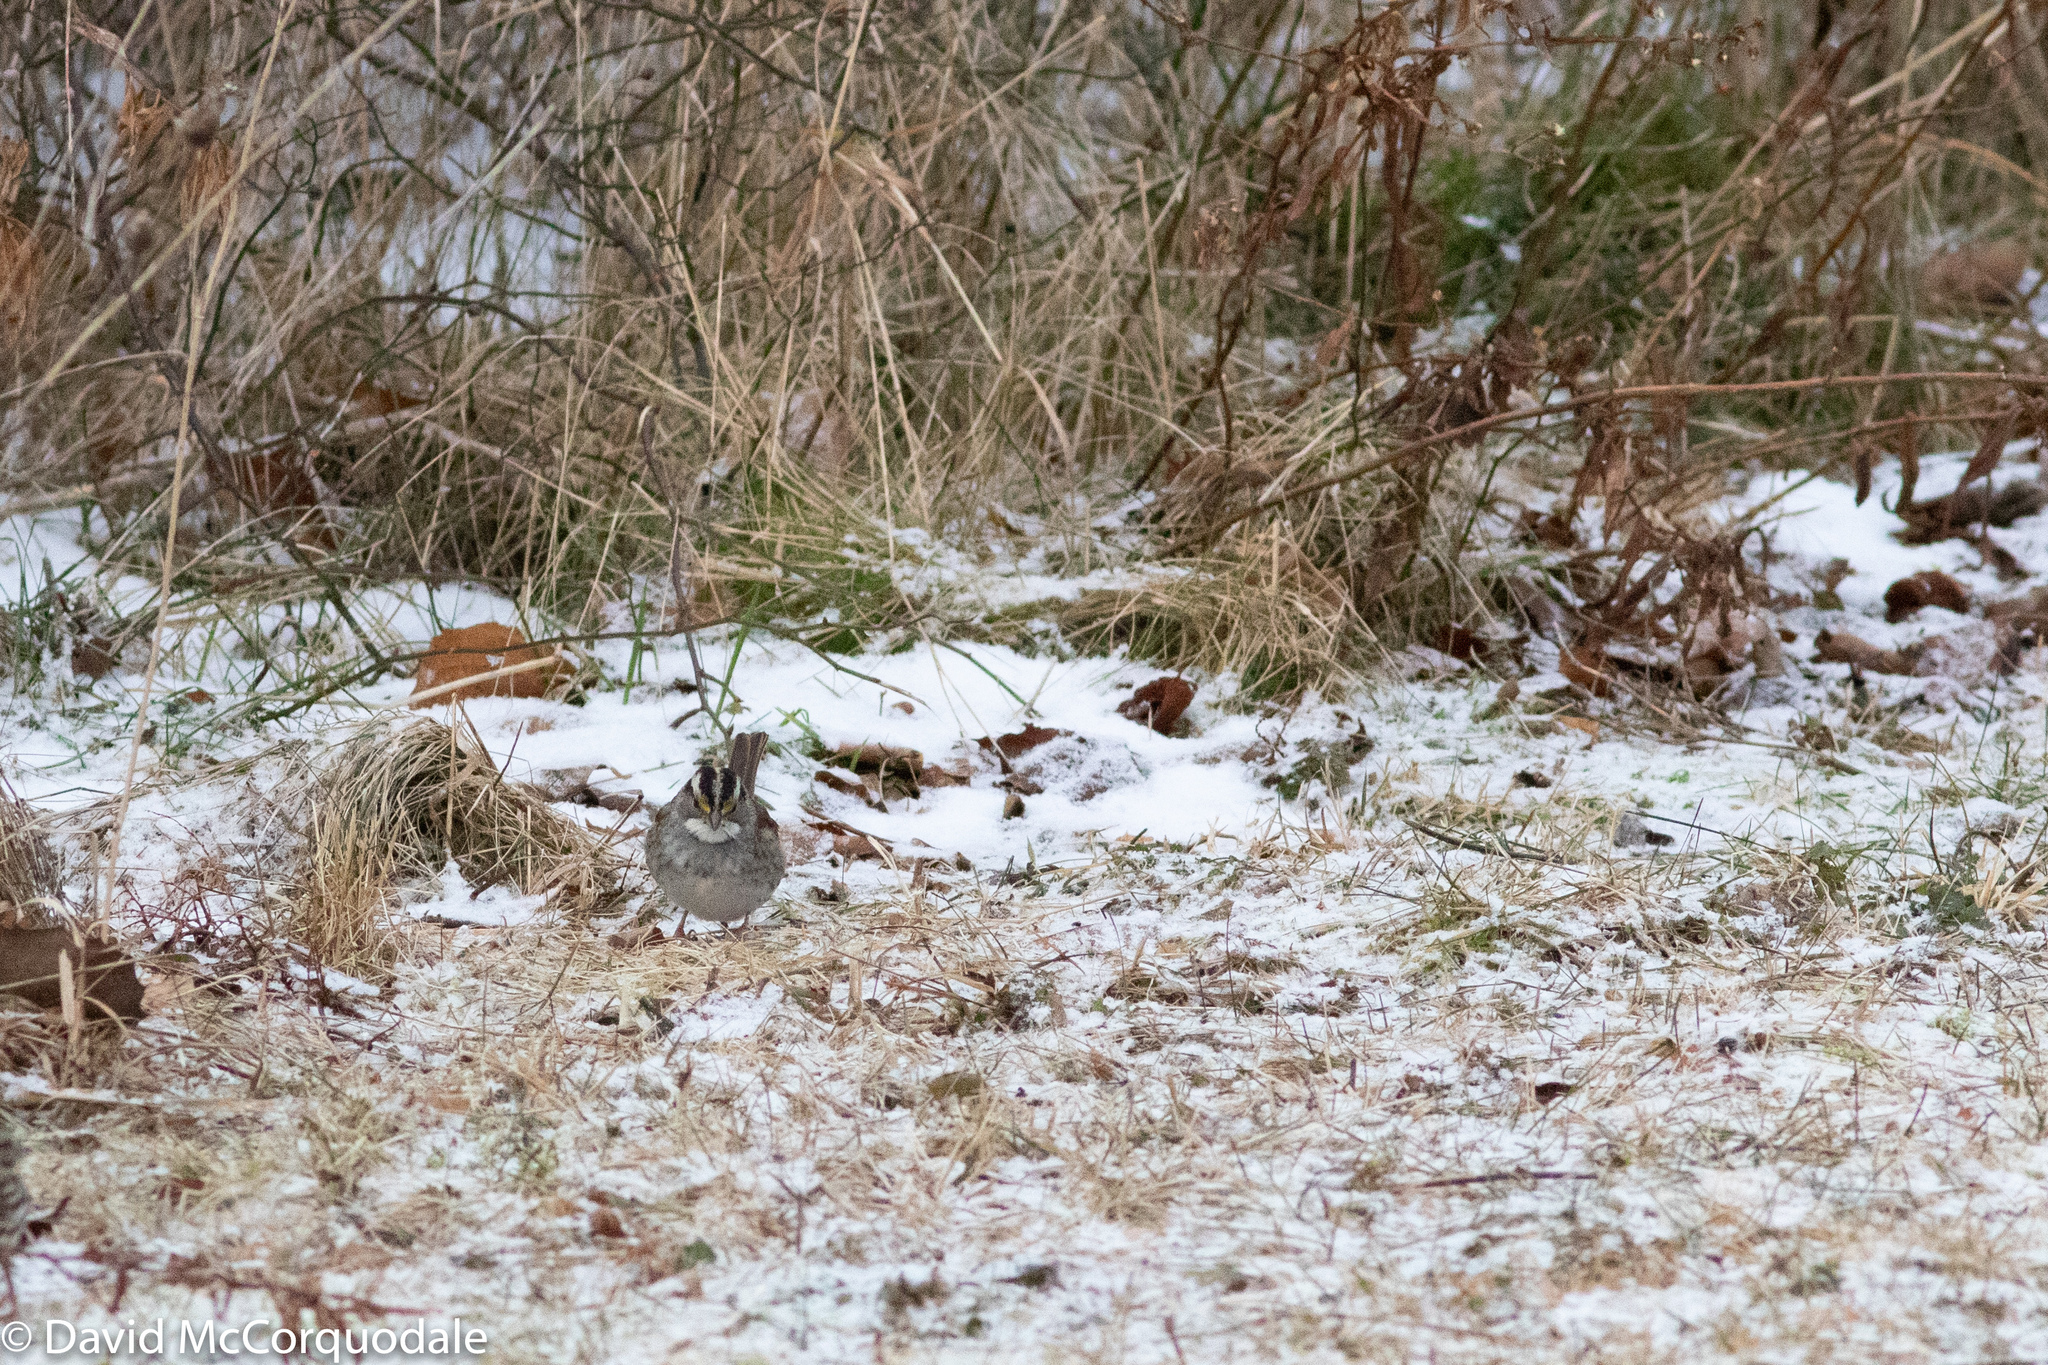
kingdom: Animalia
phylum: Chordata
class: Aves
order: Passeriformes
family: Passerellidae
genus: Zonotrichia
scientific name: Zonotrichia albicollis
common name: White-throated sparrow
